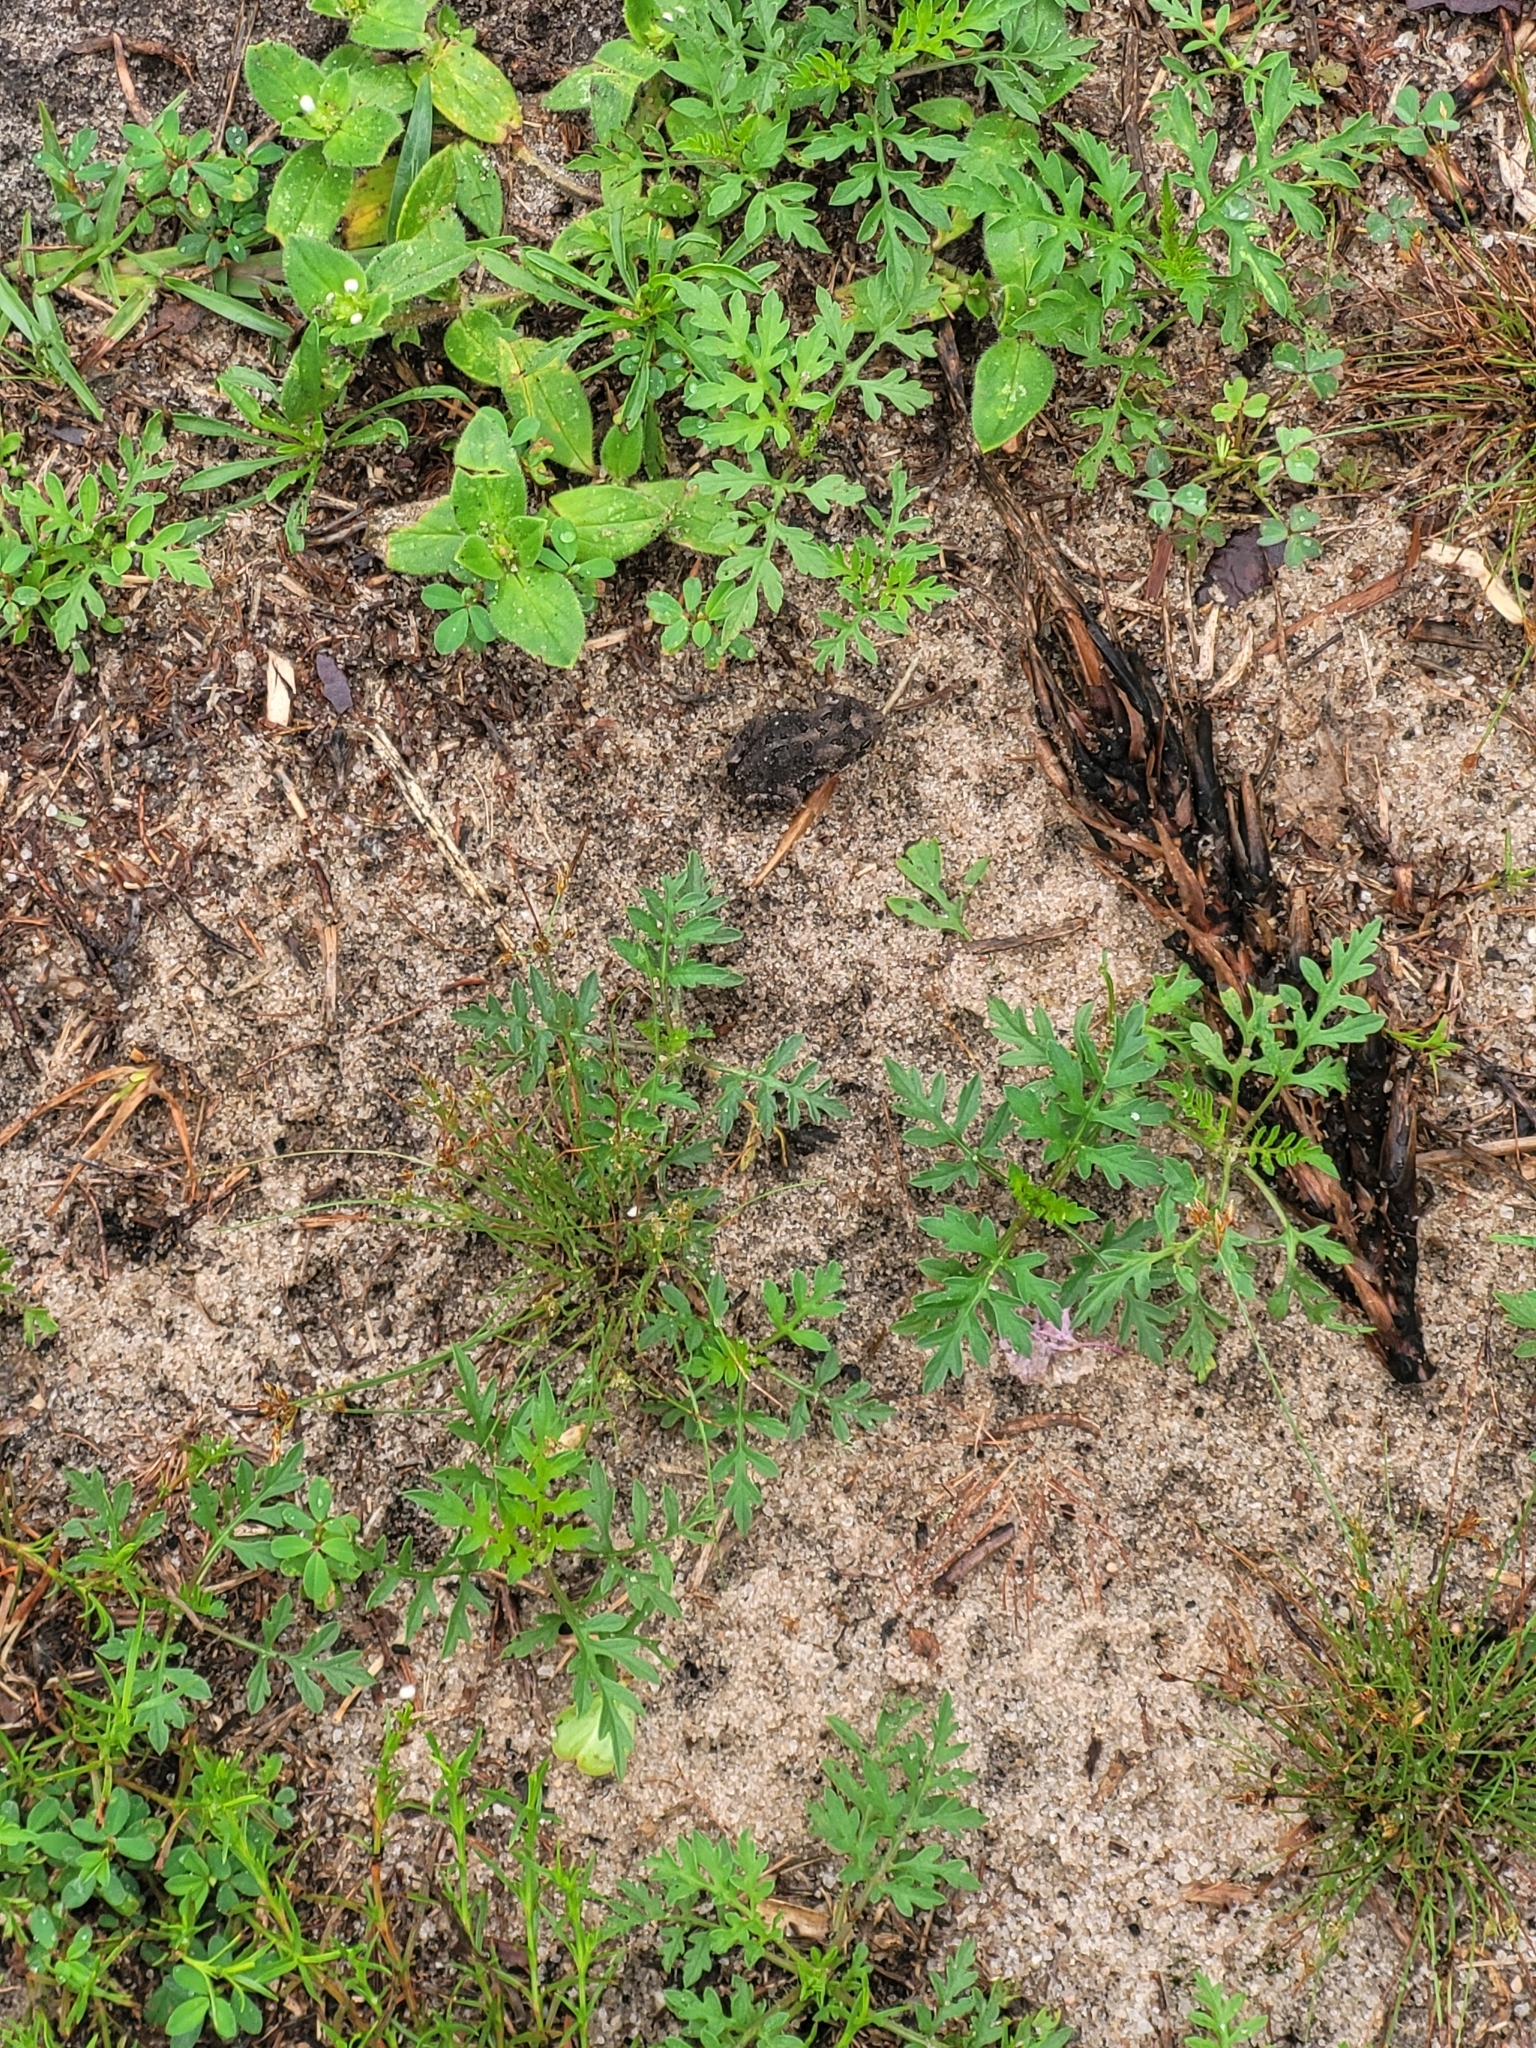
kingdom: Animalia
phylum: Chordata
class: Amphibia
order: Anura
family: Bufonidae
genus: Anaxyrus
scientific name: Anaxyrus terrestris
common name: Southern toad
